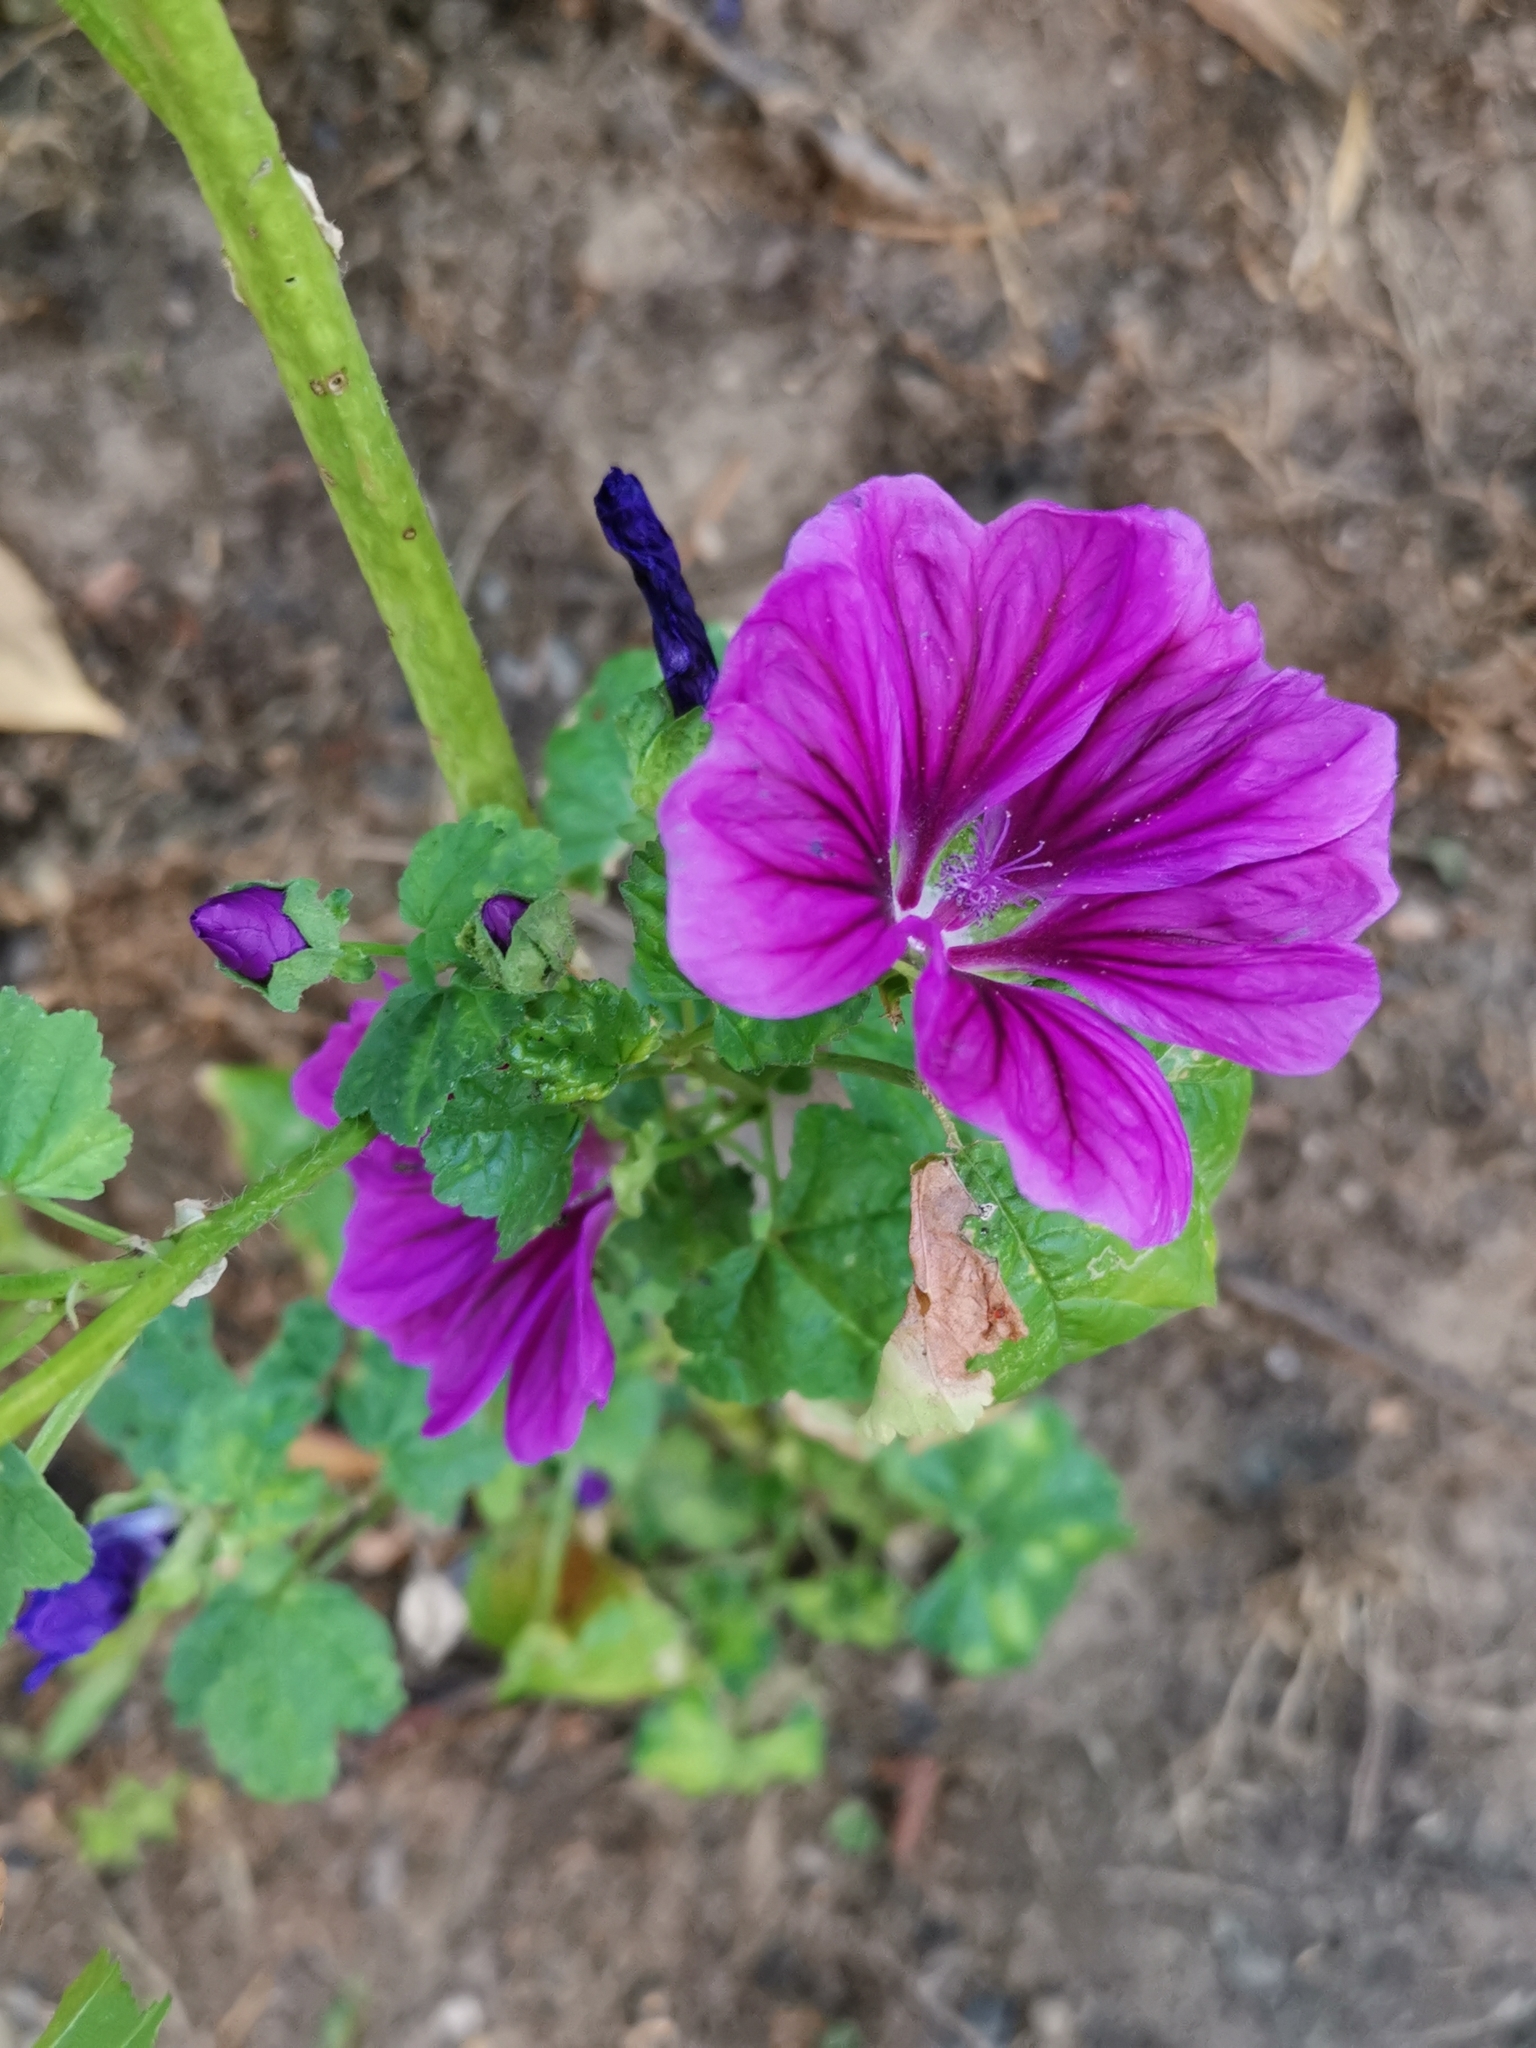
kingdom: Plantae
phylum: Tracheophyta
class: Magnoliopsida
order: Malvales
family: Malvaceae
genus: Malva
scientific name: Malva sylvestris
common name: Common mallow
